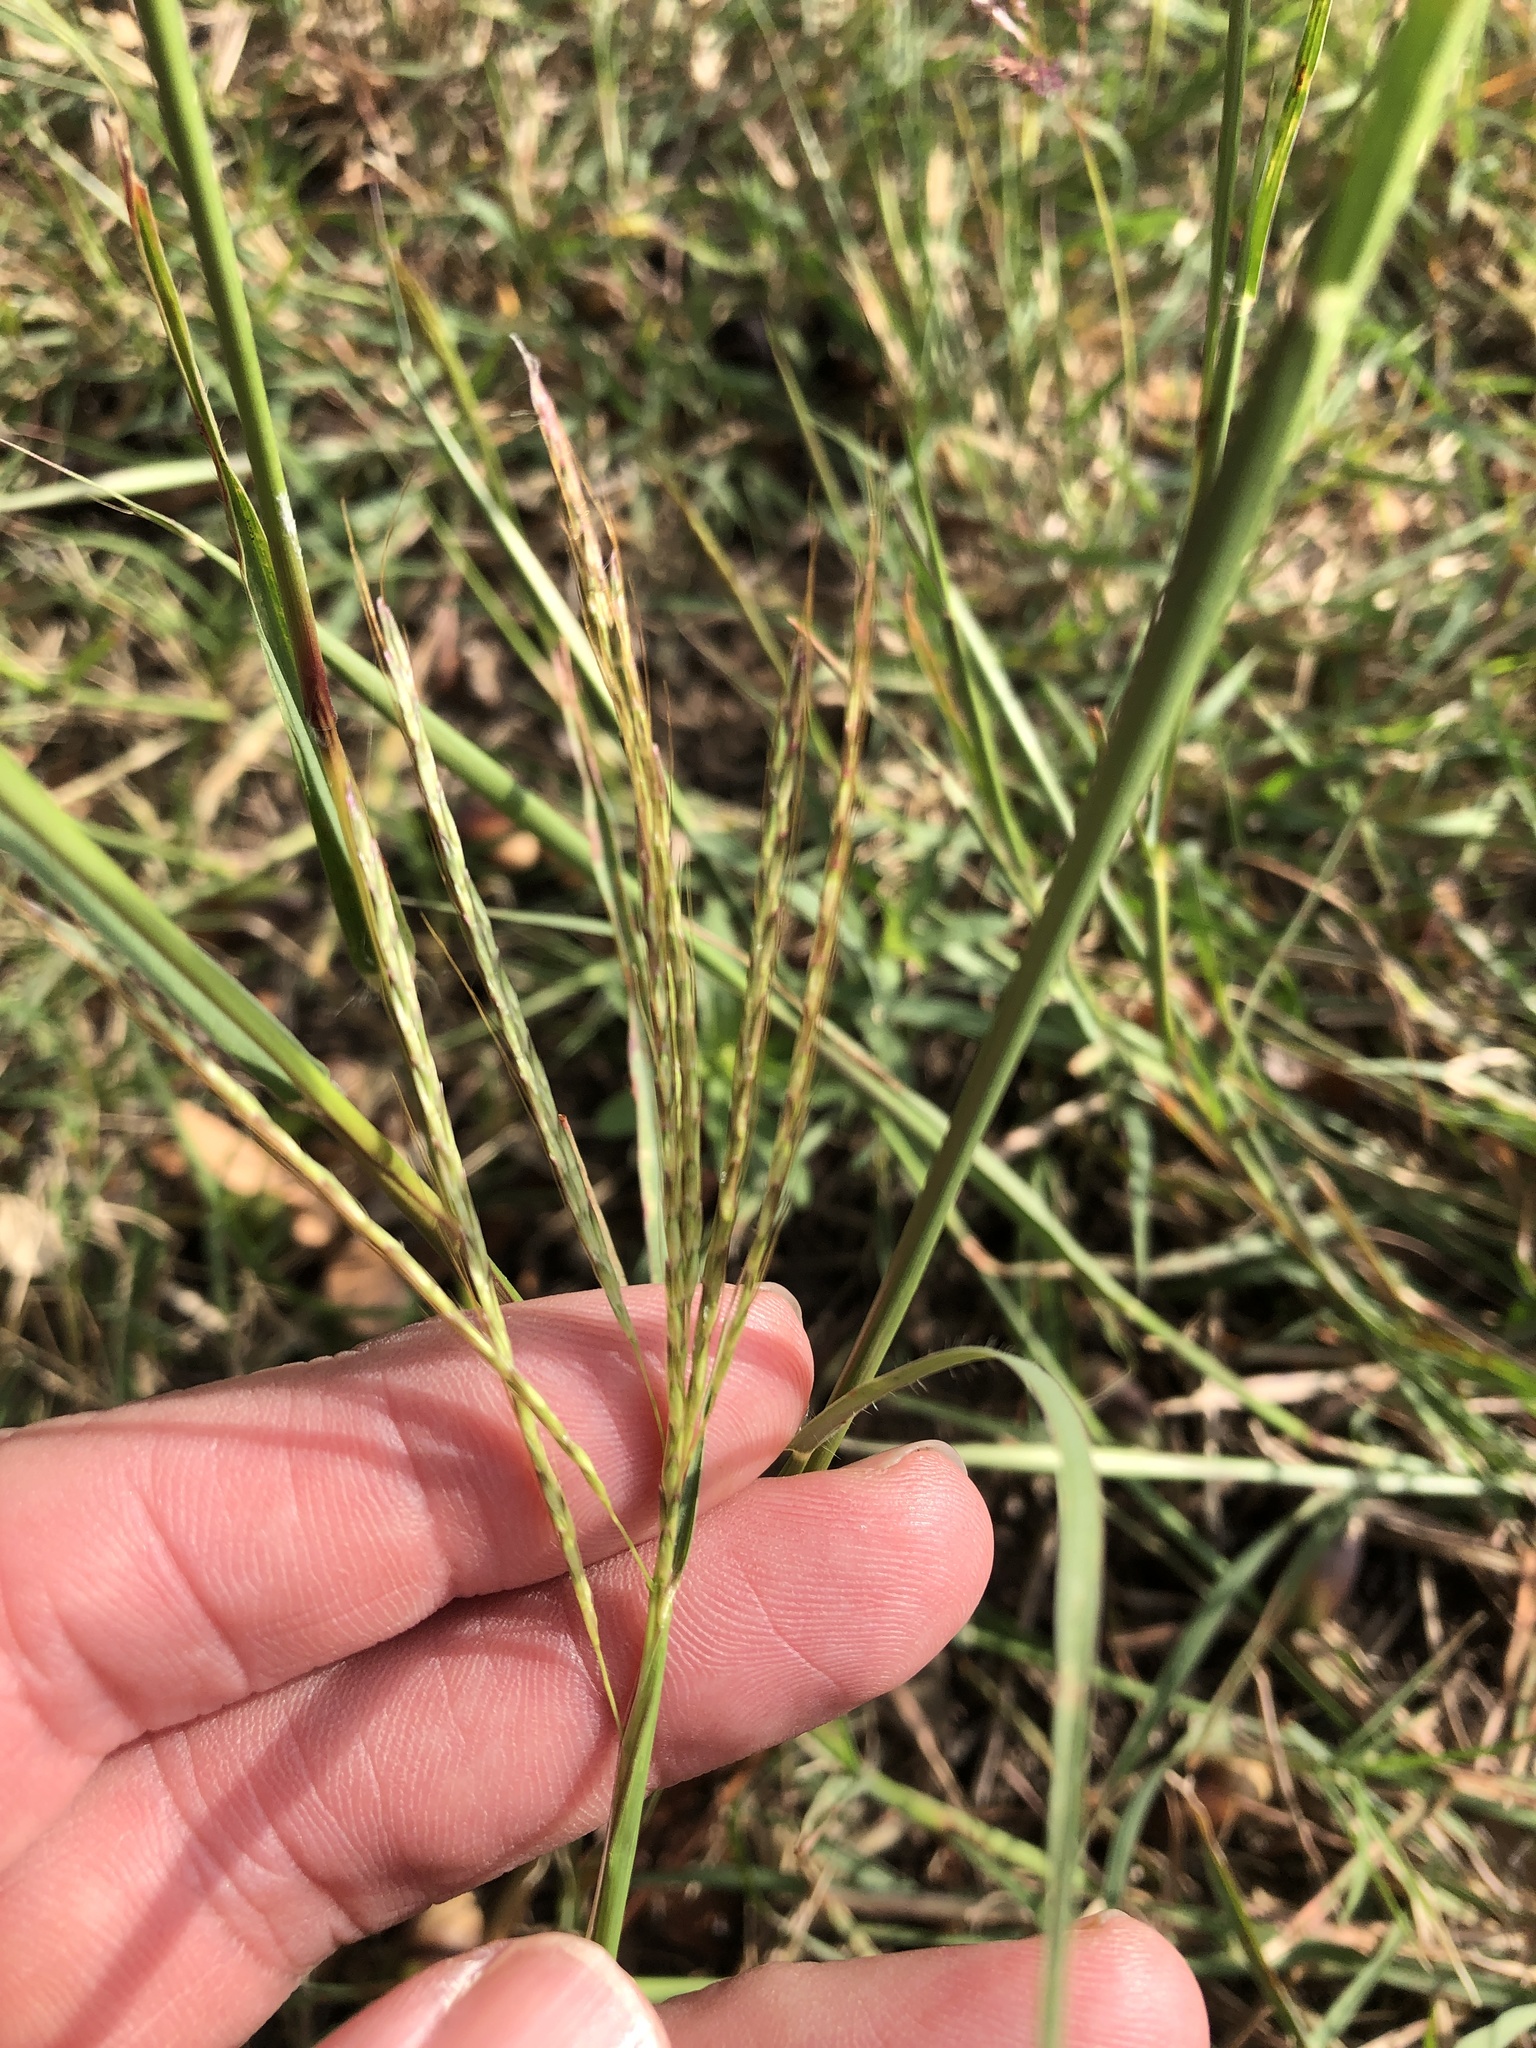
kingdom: Plantae
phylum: Tracheophyta
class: Liliopsida
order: Poales
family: Poaceae
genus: Bothriochloa
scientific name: Bothriochloa ischaemum
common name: Yellow bluestem
